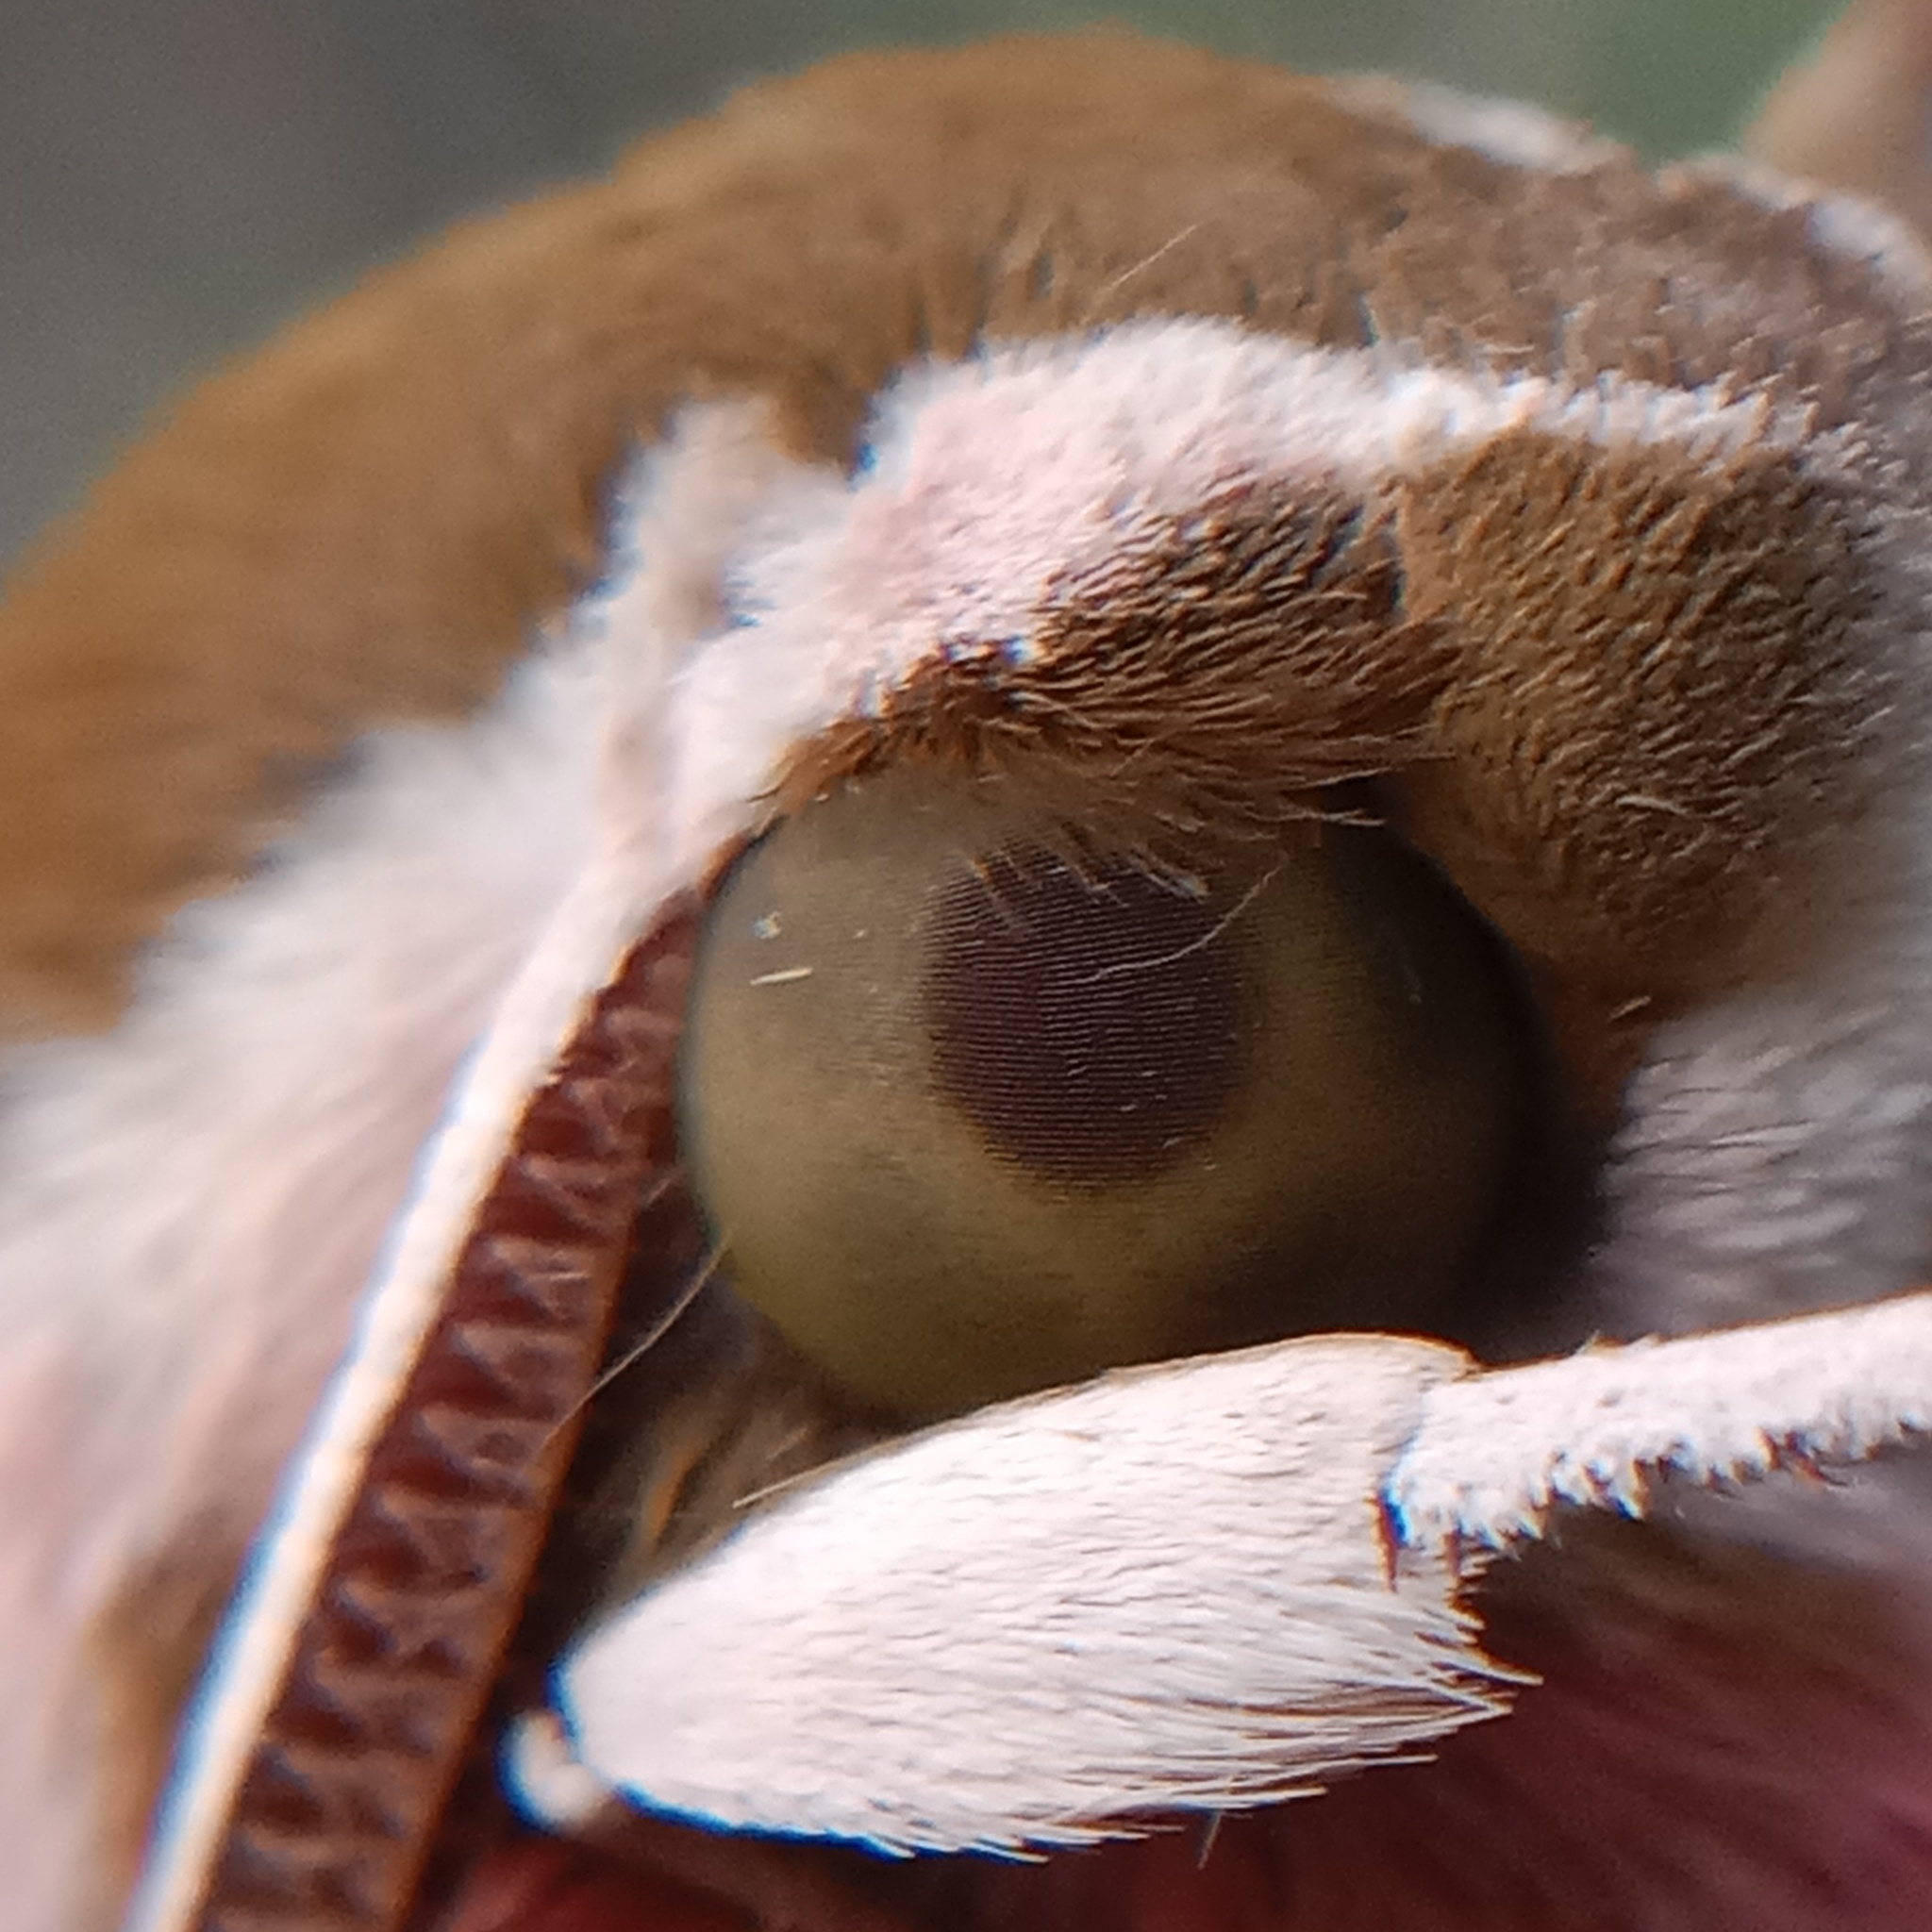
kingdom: Animalia
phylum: Arthropoda
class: Insecta
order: Lepidoptera
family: Sphingidae
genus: Hyles
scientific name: Hyles euphorbiae
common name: Spurge hawk-moth
